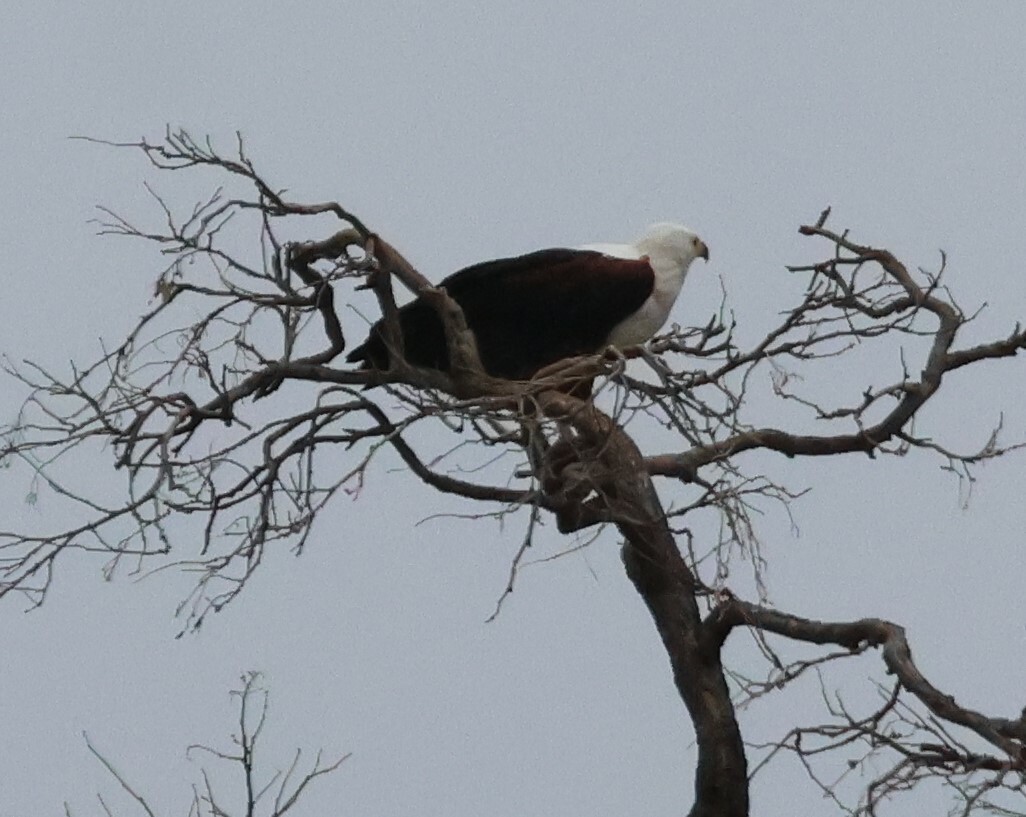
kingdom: Animalia
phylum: Chordata
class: Aves
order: Accipitriformes
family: Accipitridae
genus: Haliaeetus
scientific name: Haliaeetus vocifer
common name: African fish eagle
